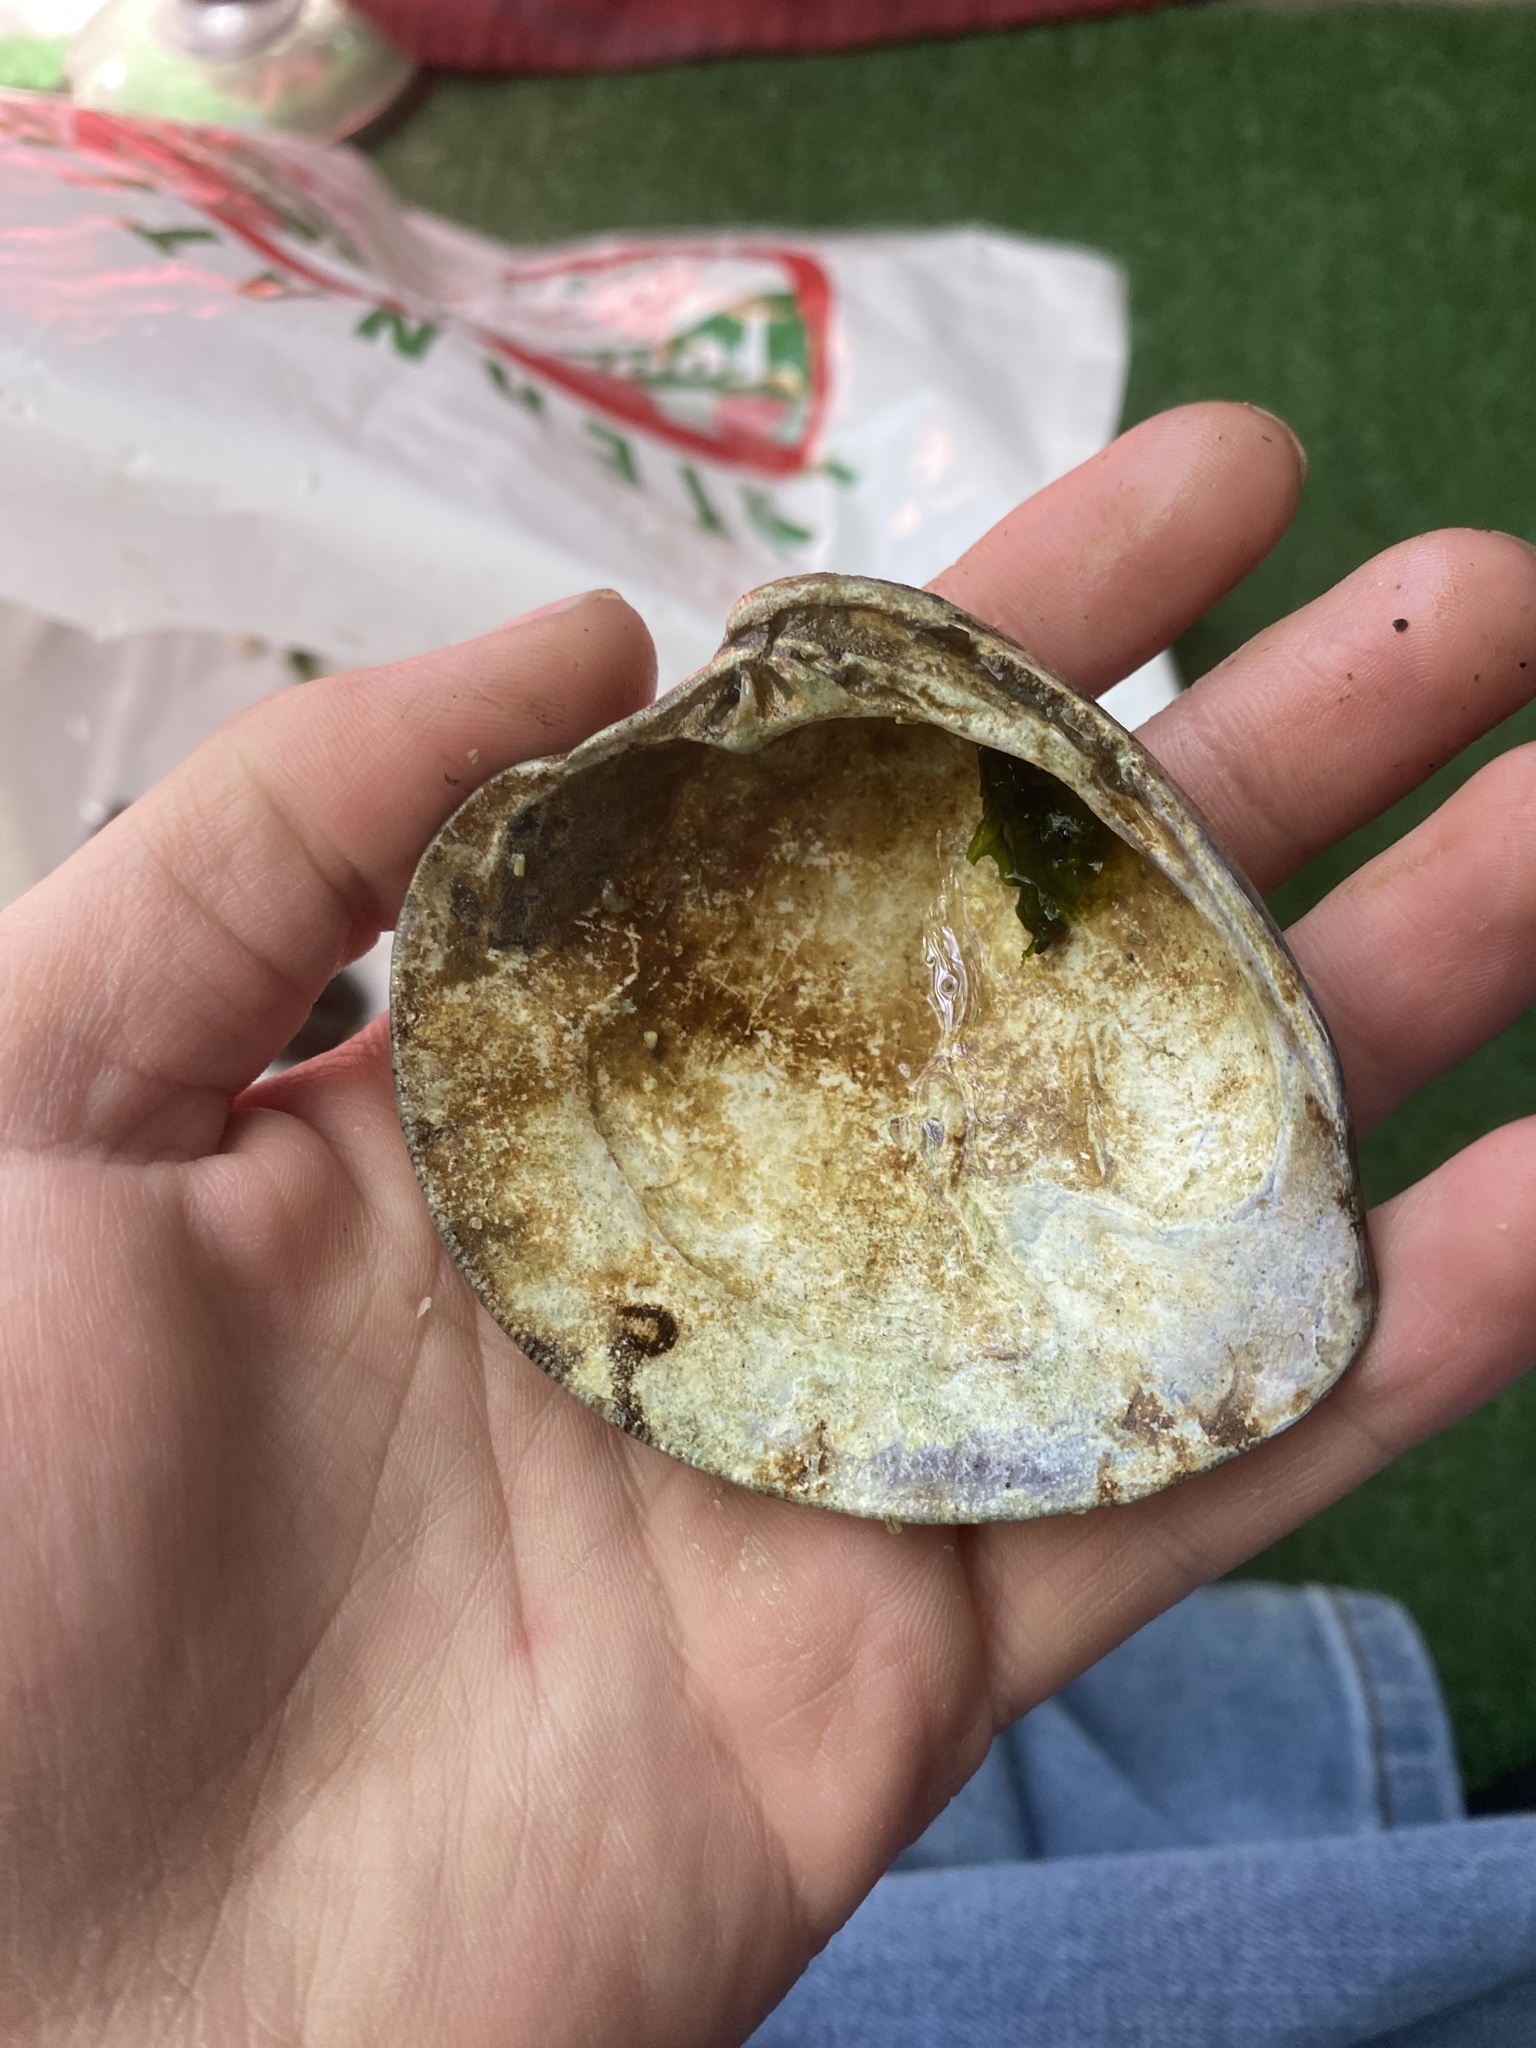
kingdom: Animalia
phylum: Mollusca
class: Bivalvia
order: Venerida
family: Veneridae
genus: Mercenaria
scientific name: Mercenaria mercenaria
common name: American hard-shelled clam
